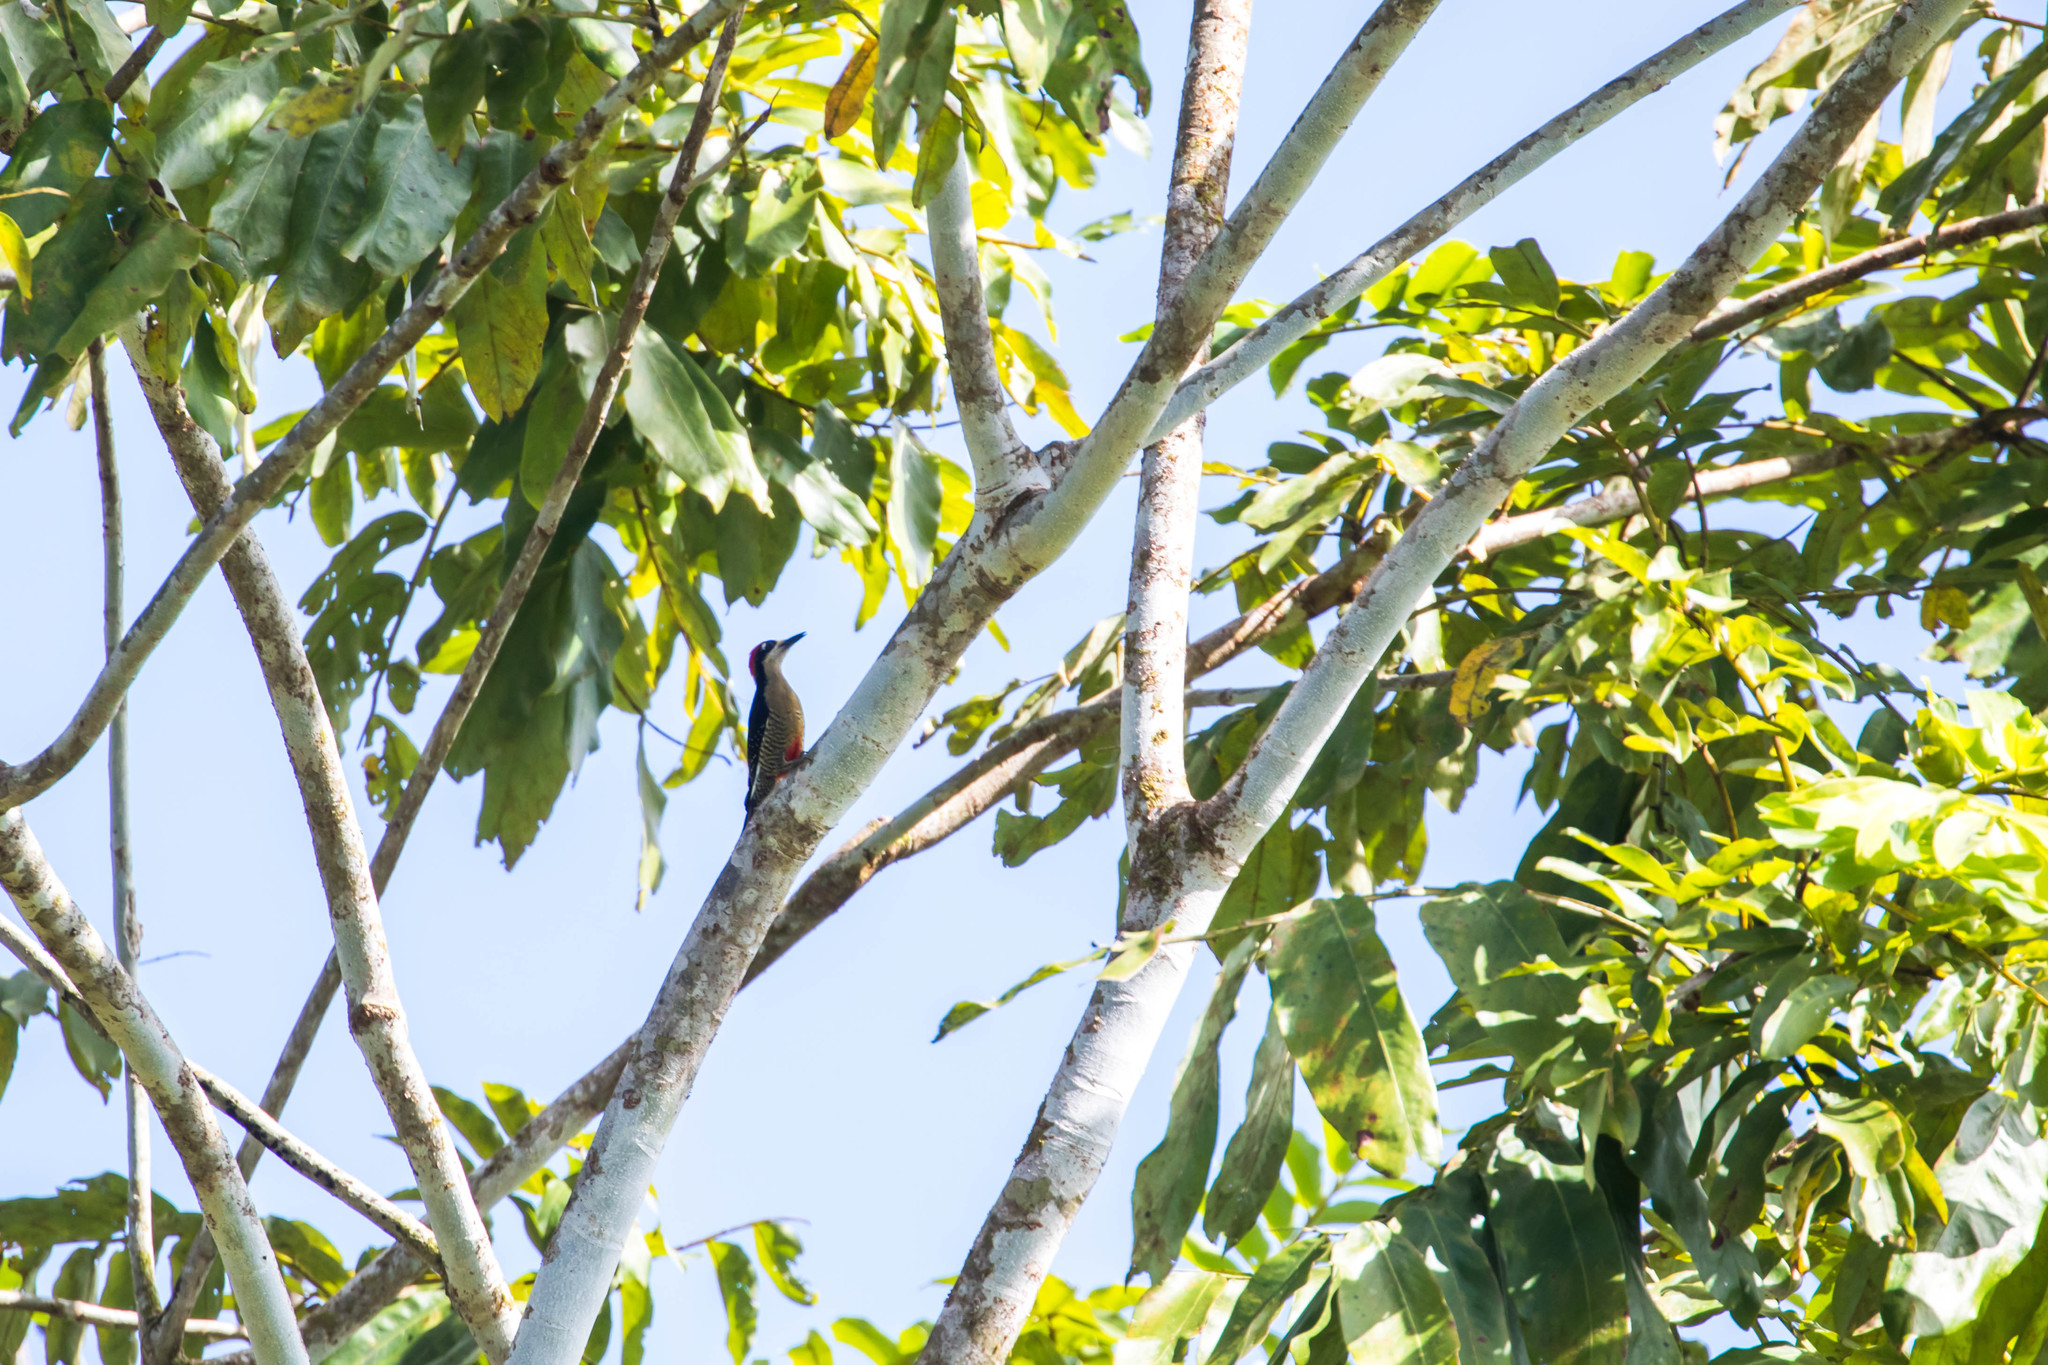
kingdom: Animalia
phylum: Chordata
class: Aves
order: Piciformes
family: Picidae
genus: Melanerpes
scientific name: Melanerpes pucherani
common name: Black-cheeked woodpecker
